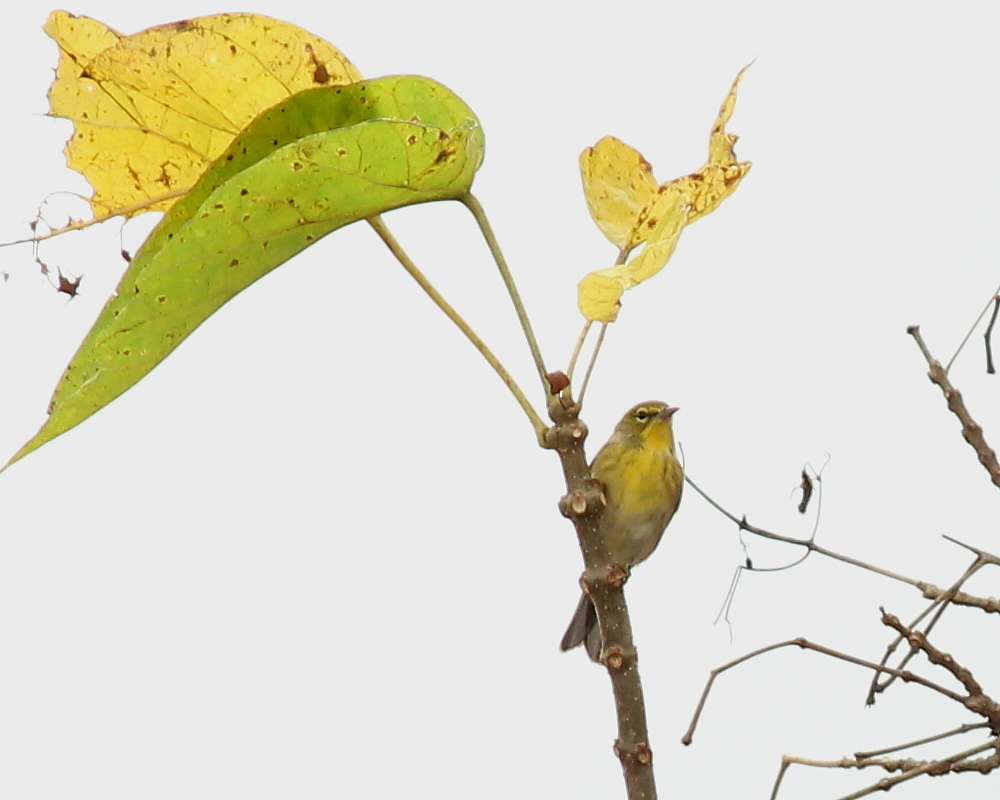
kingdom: Animalia
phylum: Chordata
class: Aves
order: Passeriformes
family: Parulidae
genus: Setophaga
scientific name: Setophaga pinus
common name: Pine warbler
